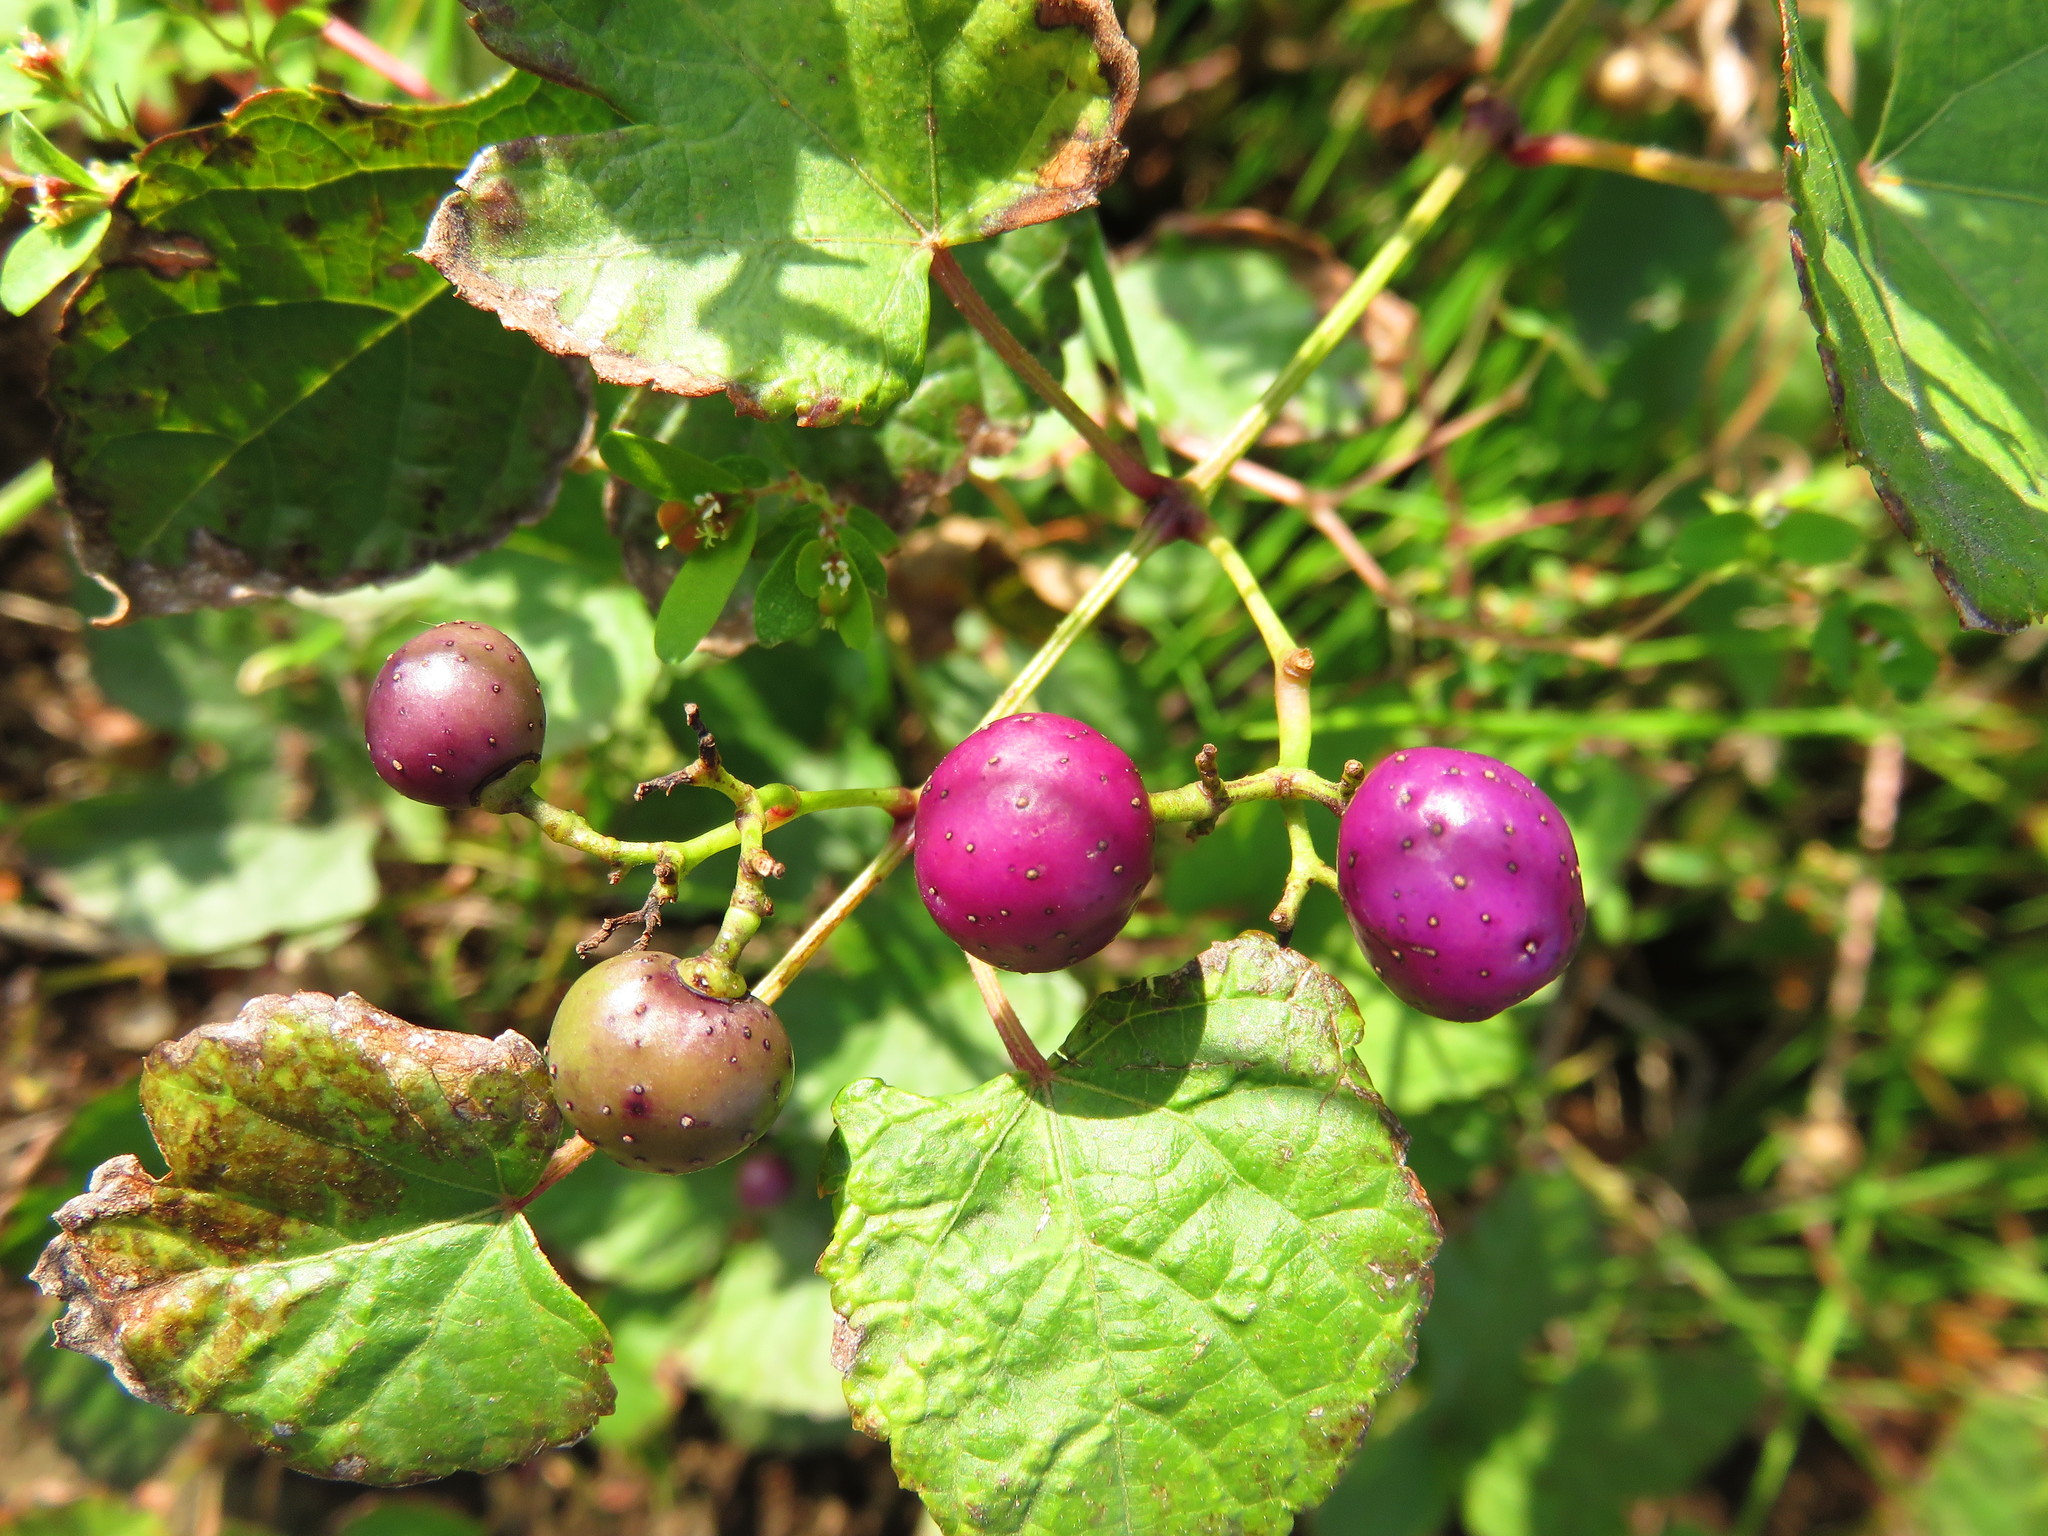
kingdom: Plantae
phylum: Tracheophyta
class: Magnoliopsida
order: Vitales
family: Vitaceae
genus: Ampelopsis
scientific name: Ampelopsis glandulosa
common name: Amur peppervine
